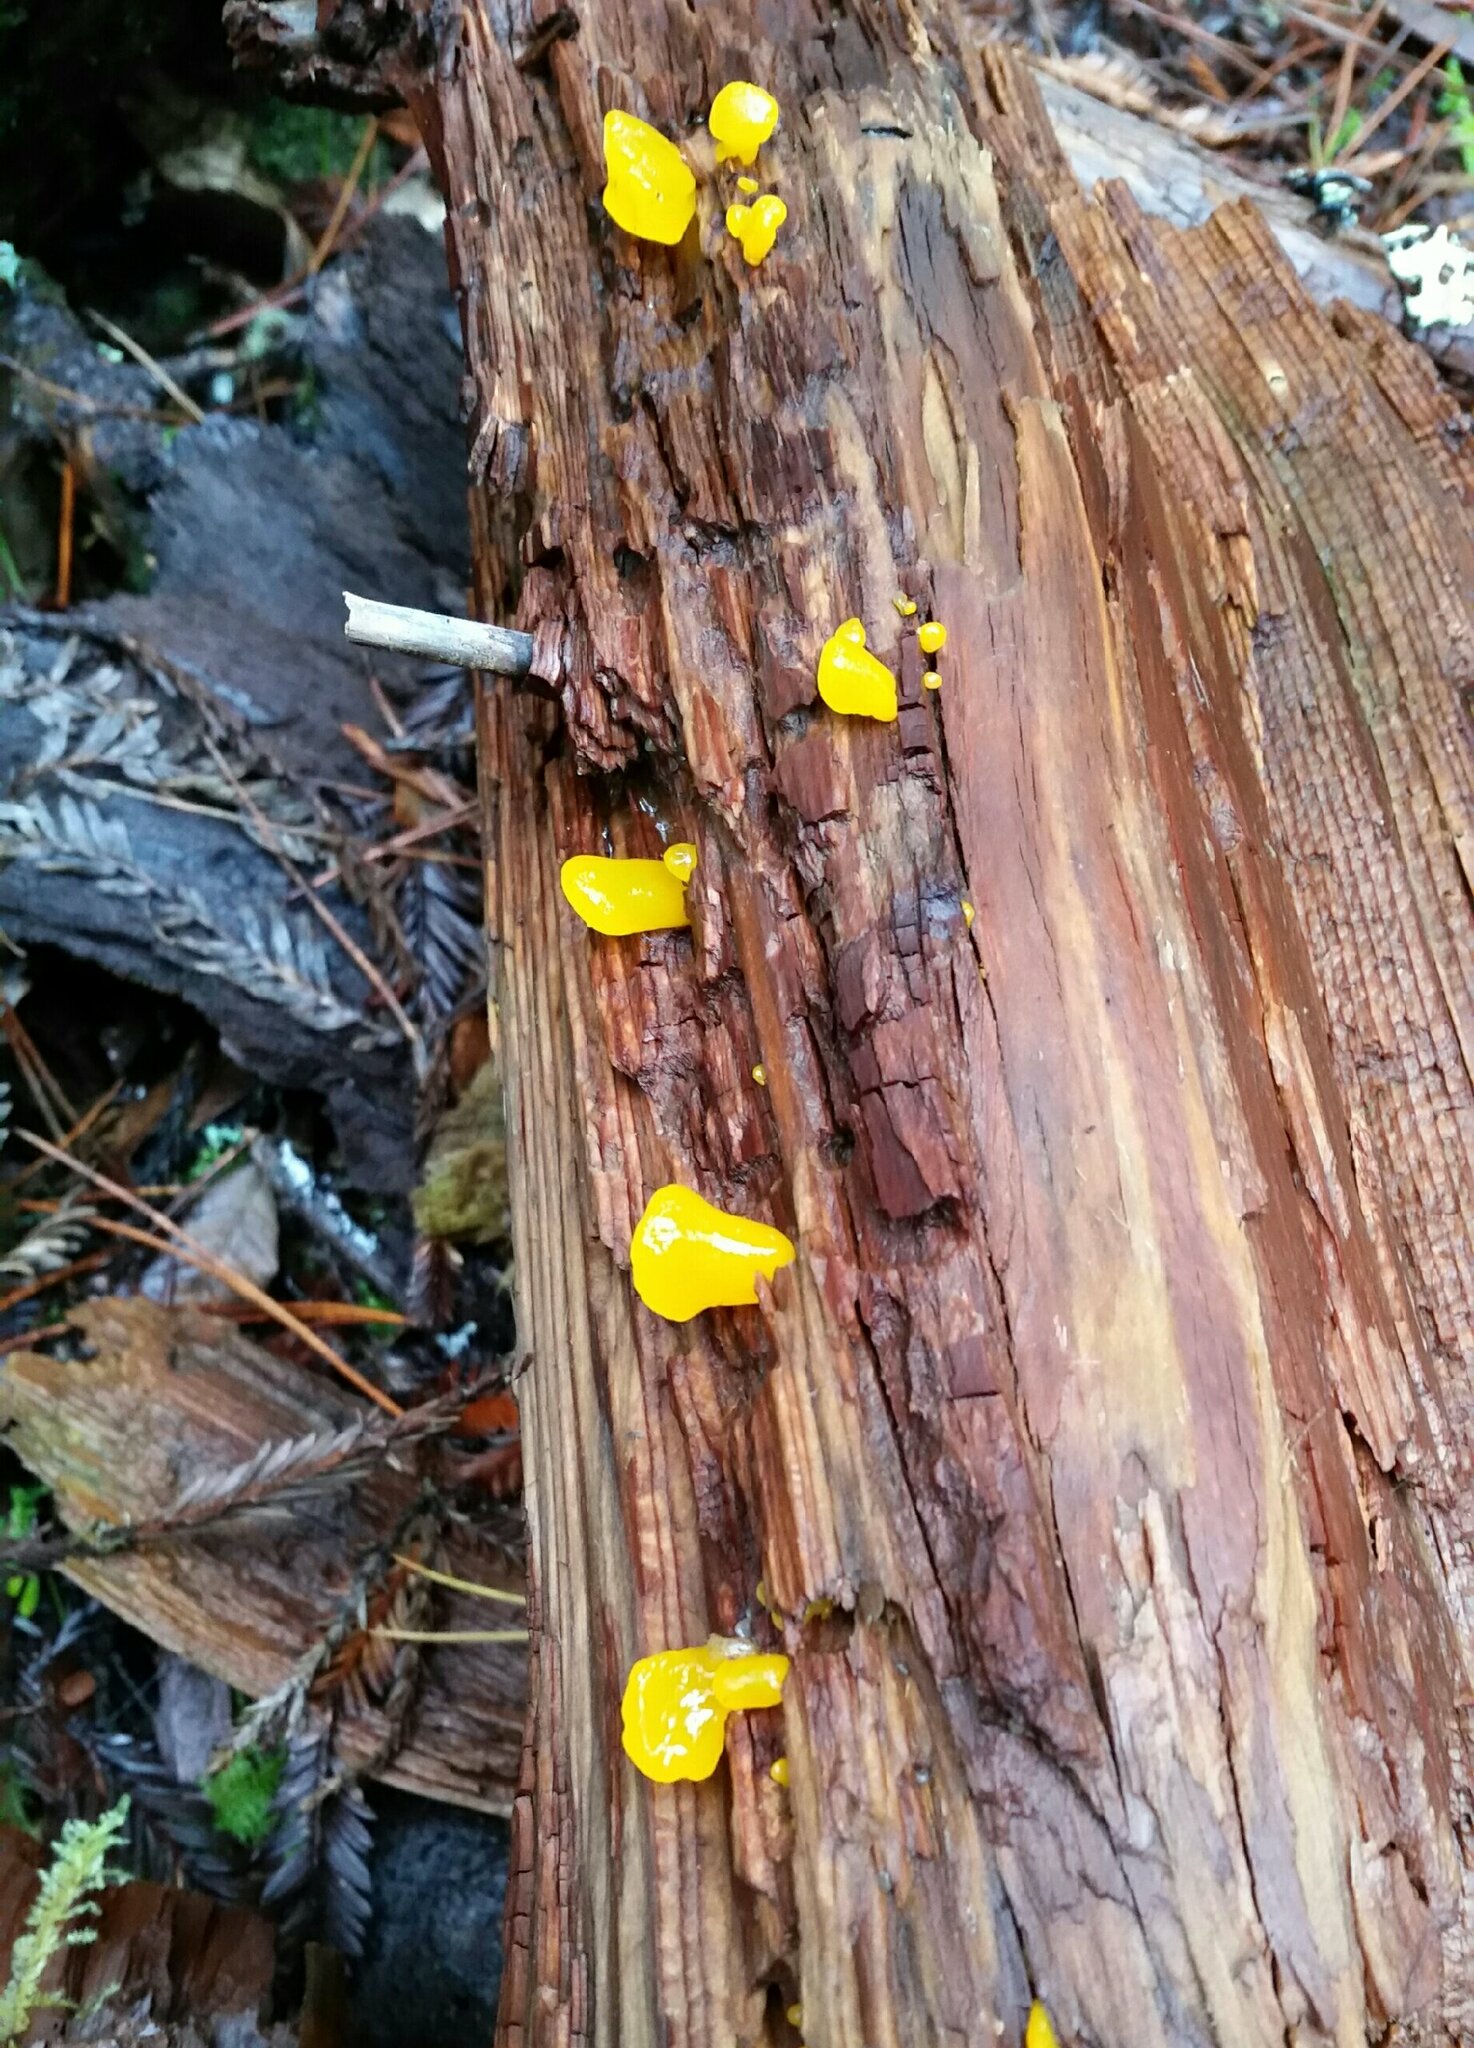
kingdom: Fungi
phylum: Basidiomycota
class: Dacrymycetes
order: Dacrymycetales
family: Dacrymycetaceae
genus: Dacrymyces
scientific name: Dacrymyces chrysospermus
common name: Orange jelly spot
